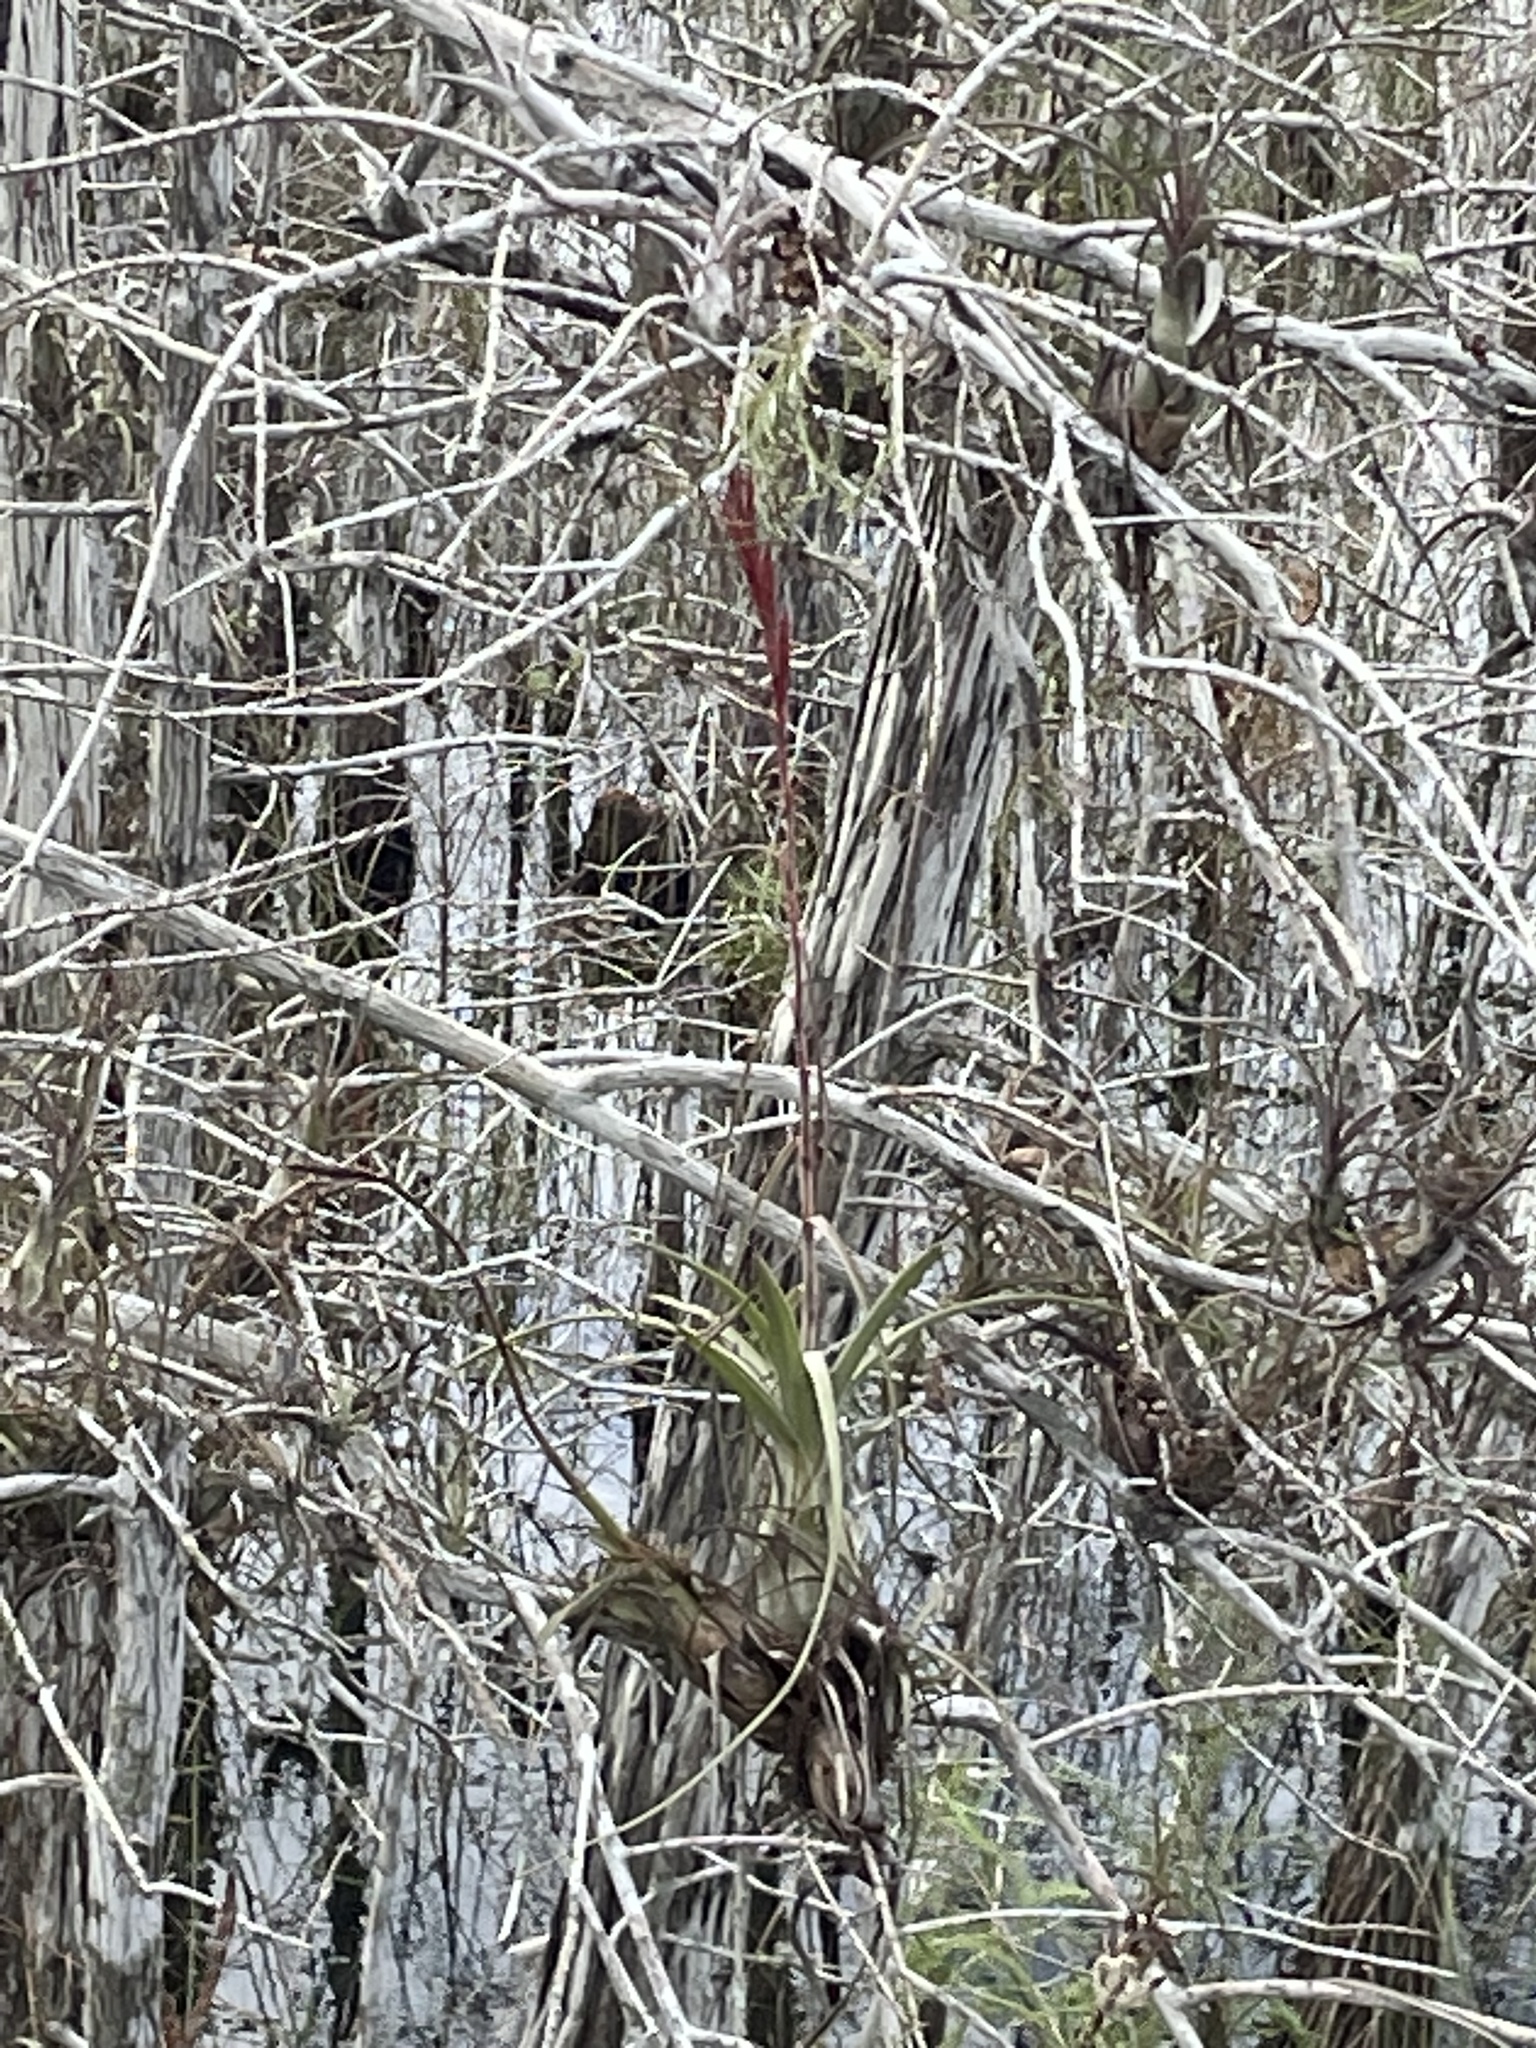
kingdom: Plantae
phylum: Tracheophyta
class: Liliopsida
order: Poales
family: Bromeliaceae
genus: Tillandsia
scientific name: Tillandsia balbisiana
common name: Northern needleleaf
